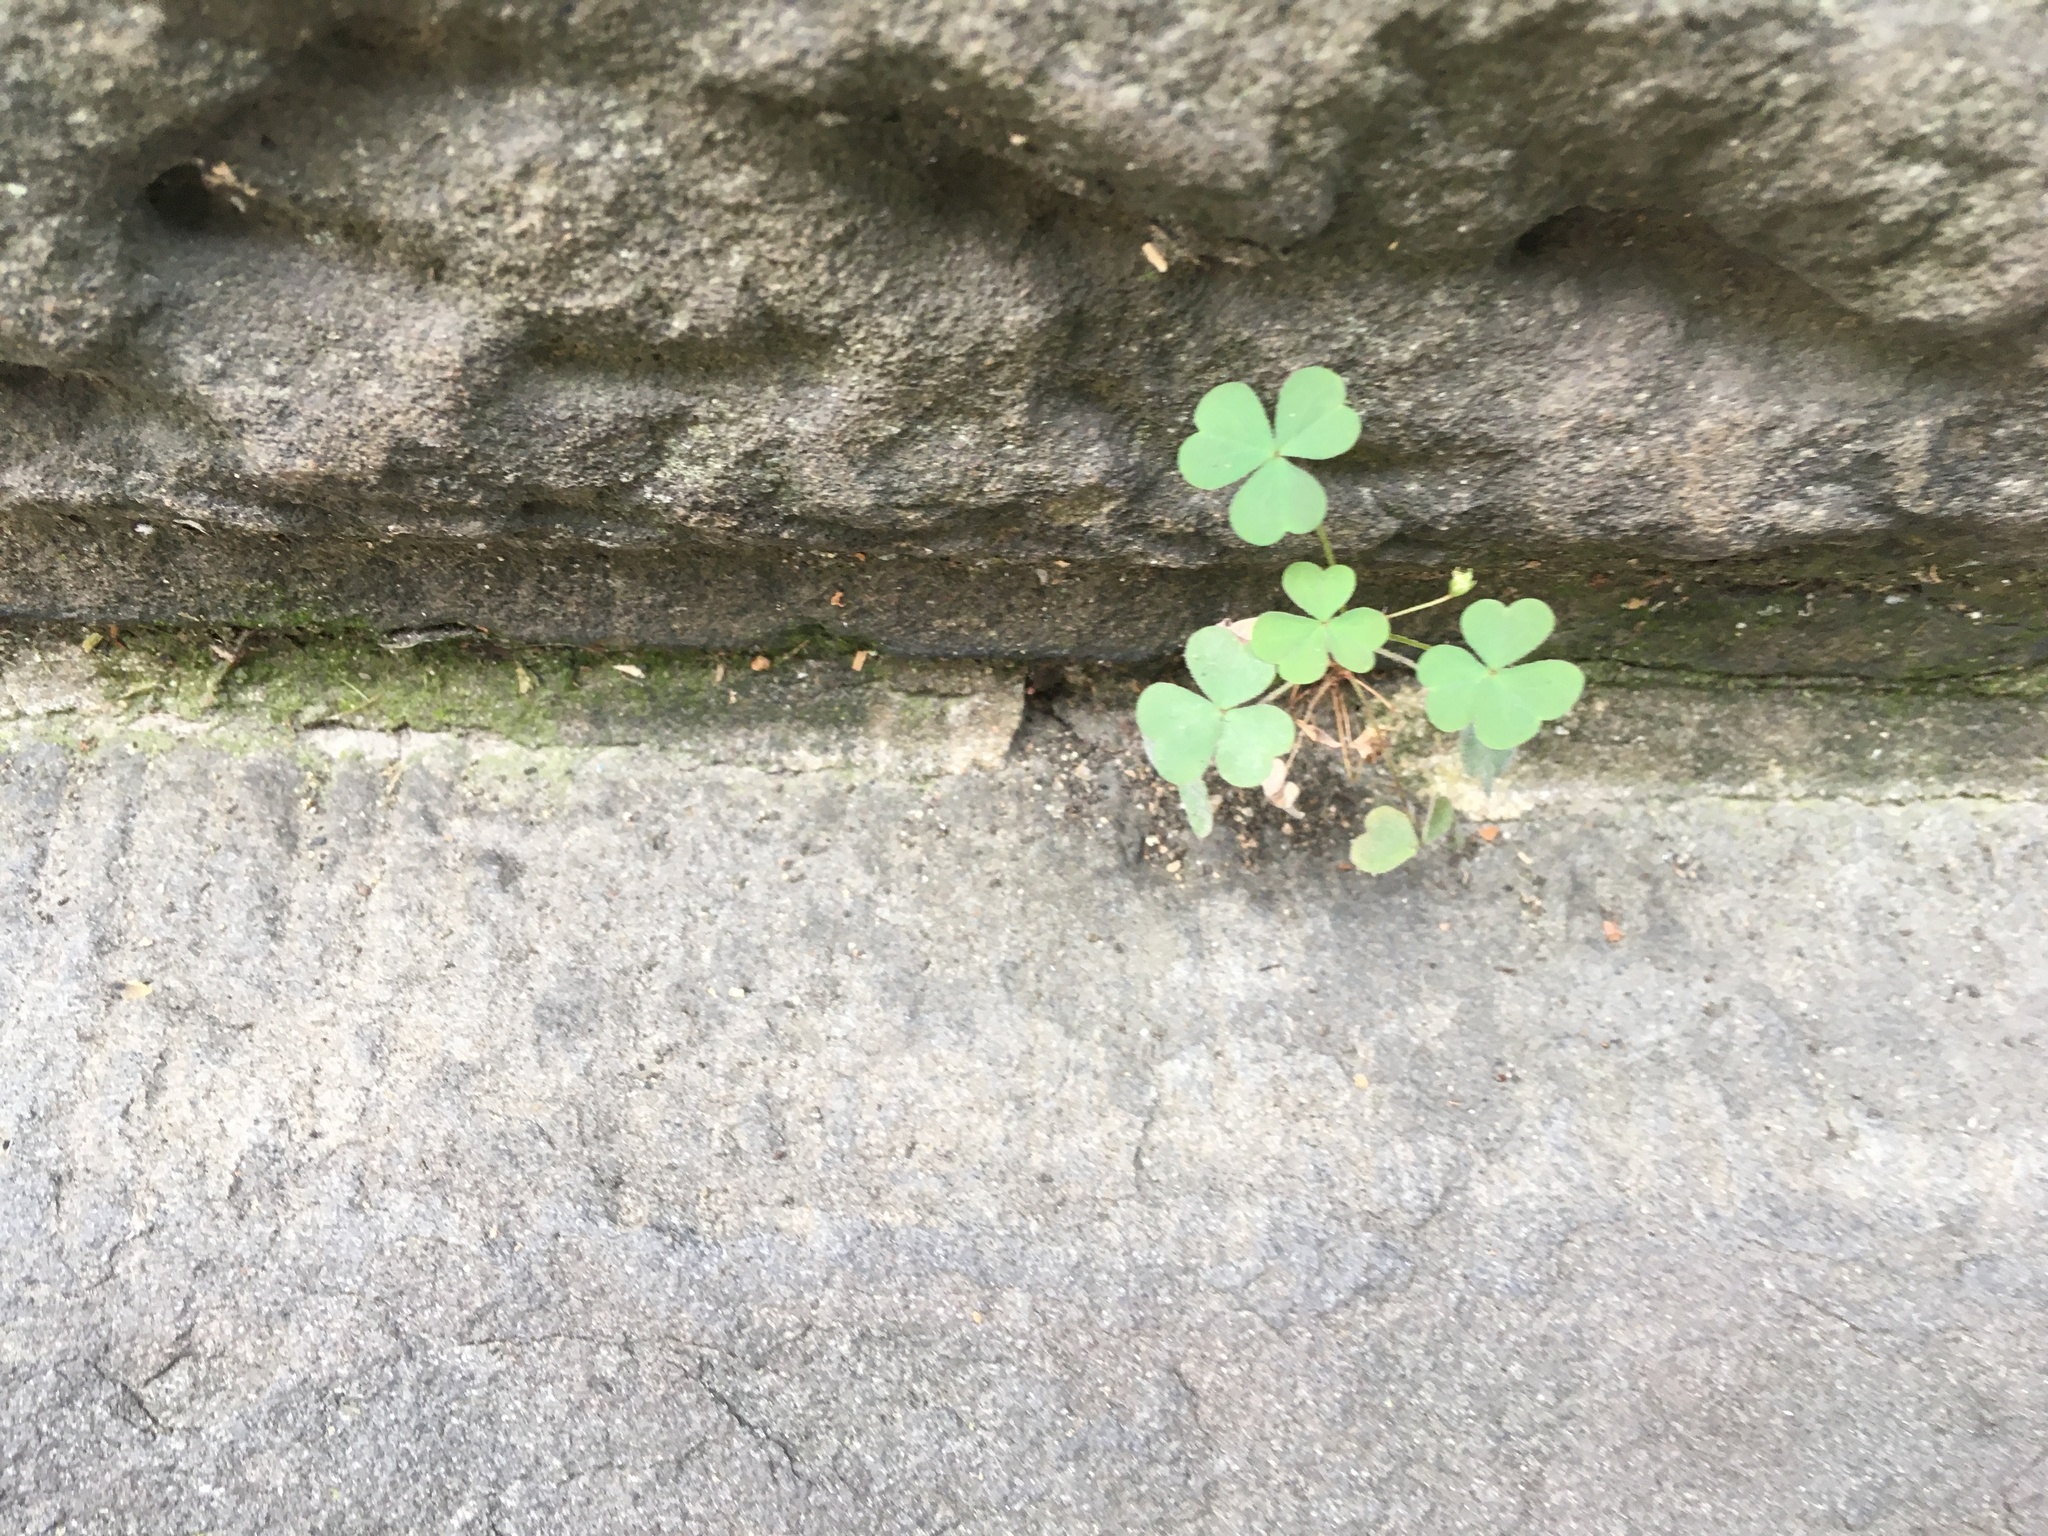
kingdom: Plantae
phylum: Tracheophyta
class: Magnoliopsida
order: Oxalidales
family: Oxalidaceae
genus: Oxalis
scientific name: Oxalis corniculata
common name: Procumbent yellow-sorrel
